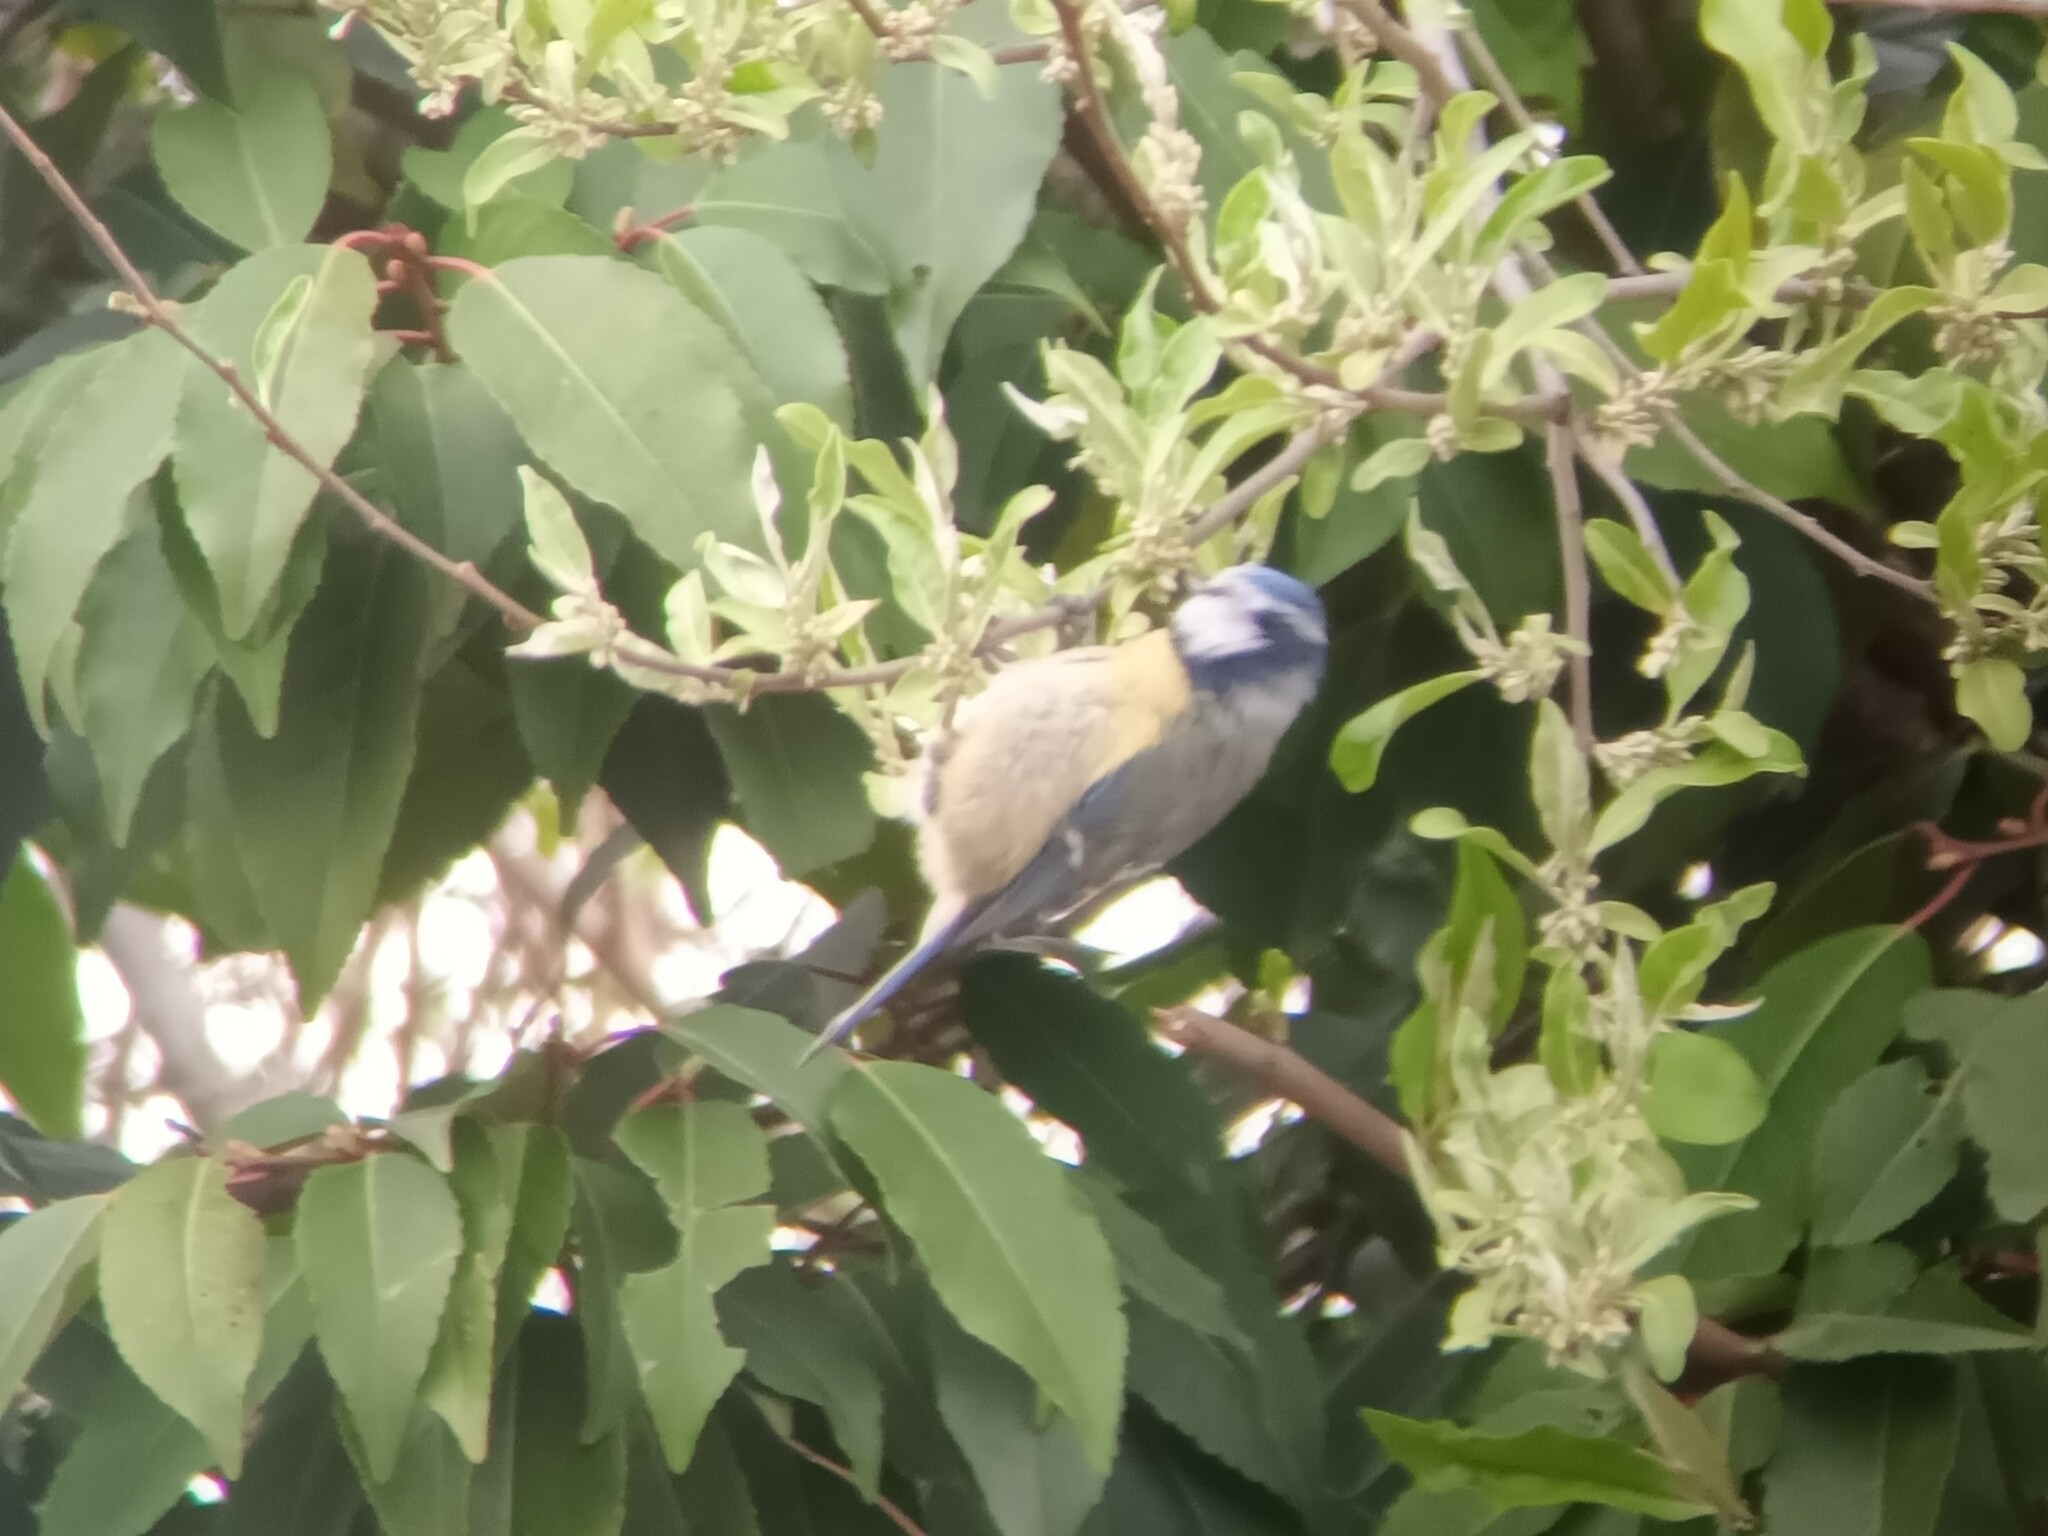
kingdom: Animalia
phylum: Chordata
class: Aves
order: Passeriformes
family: Paridae
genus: Cyanistes
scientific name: Cyanistes caeruleus
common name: Eurasian blue tit
